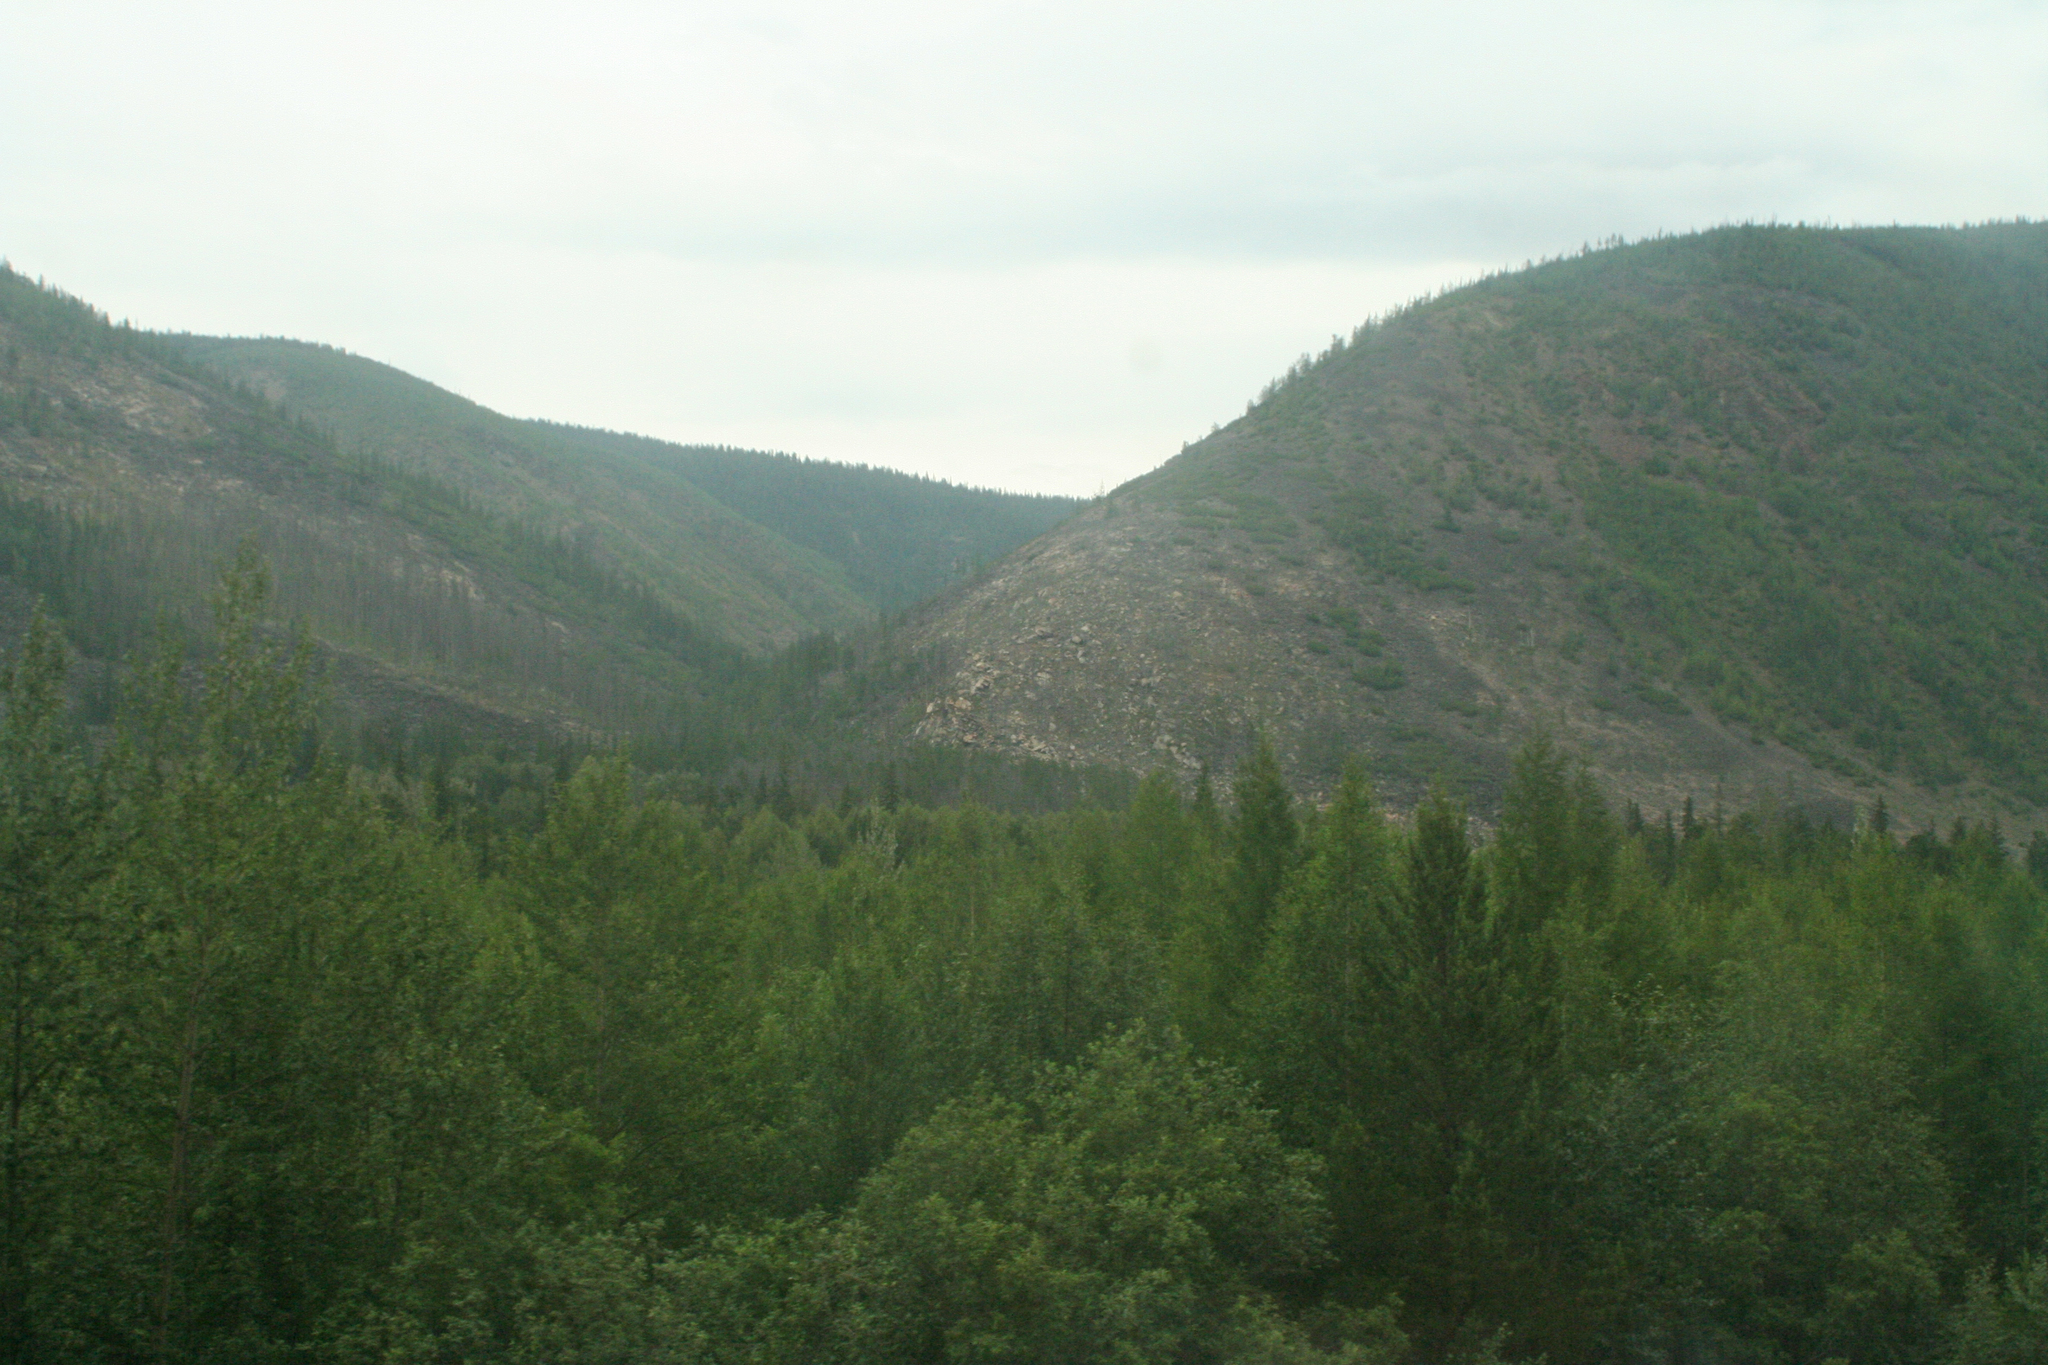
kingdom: Plantae
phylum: Tracheophyta
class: Pinopsida
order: Pinales
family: Pinaceae
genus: Pinus
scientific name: Pinus sylvestris
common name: Scots pine
